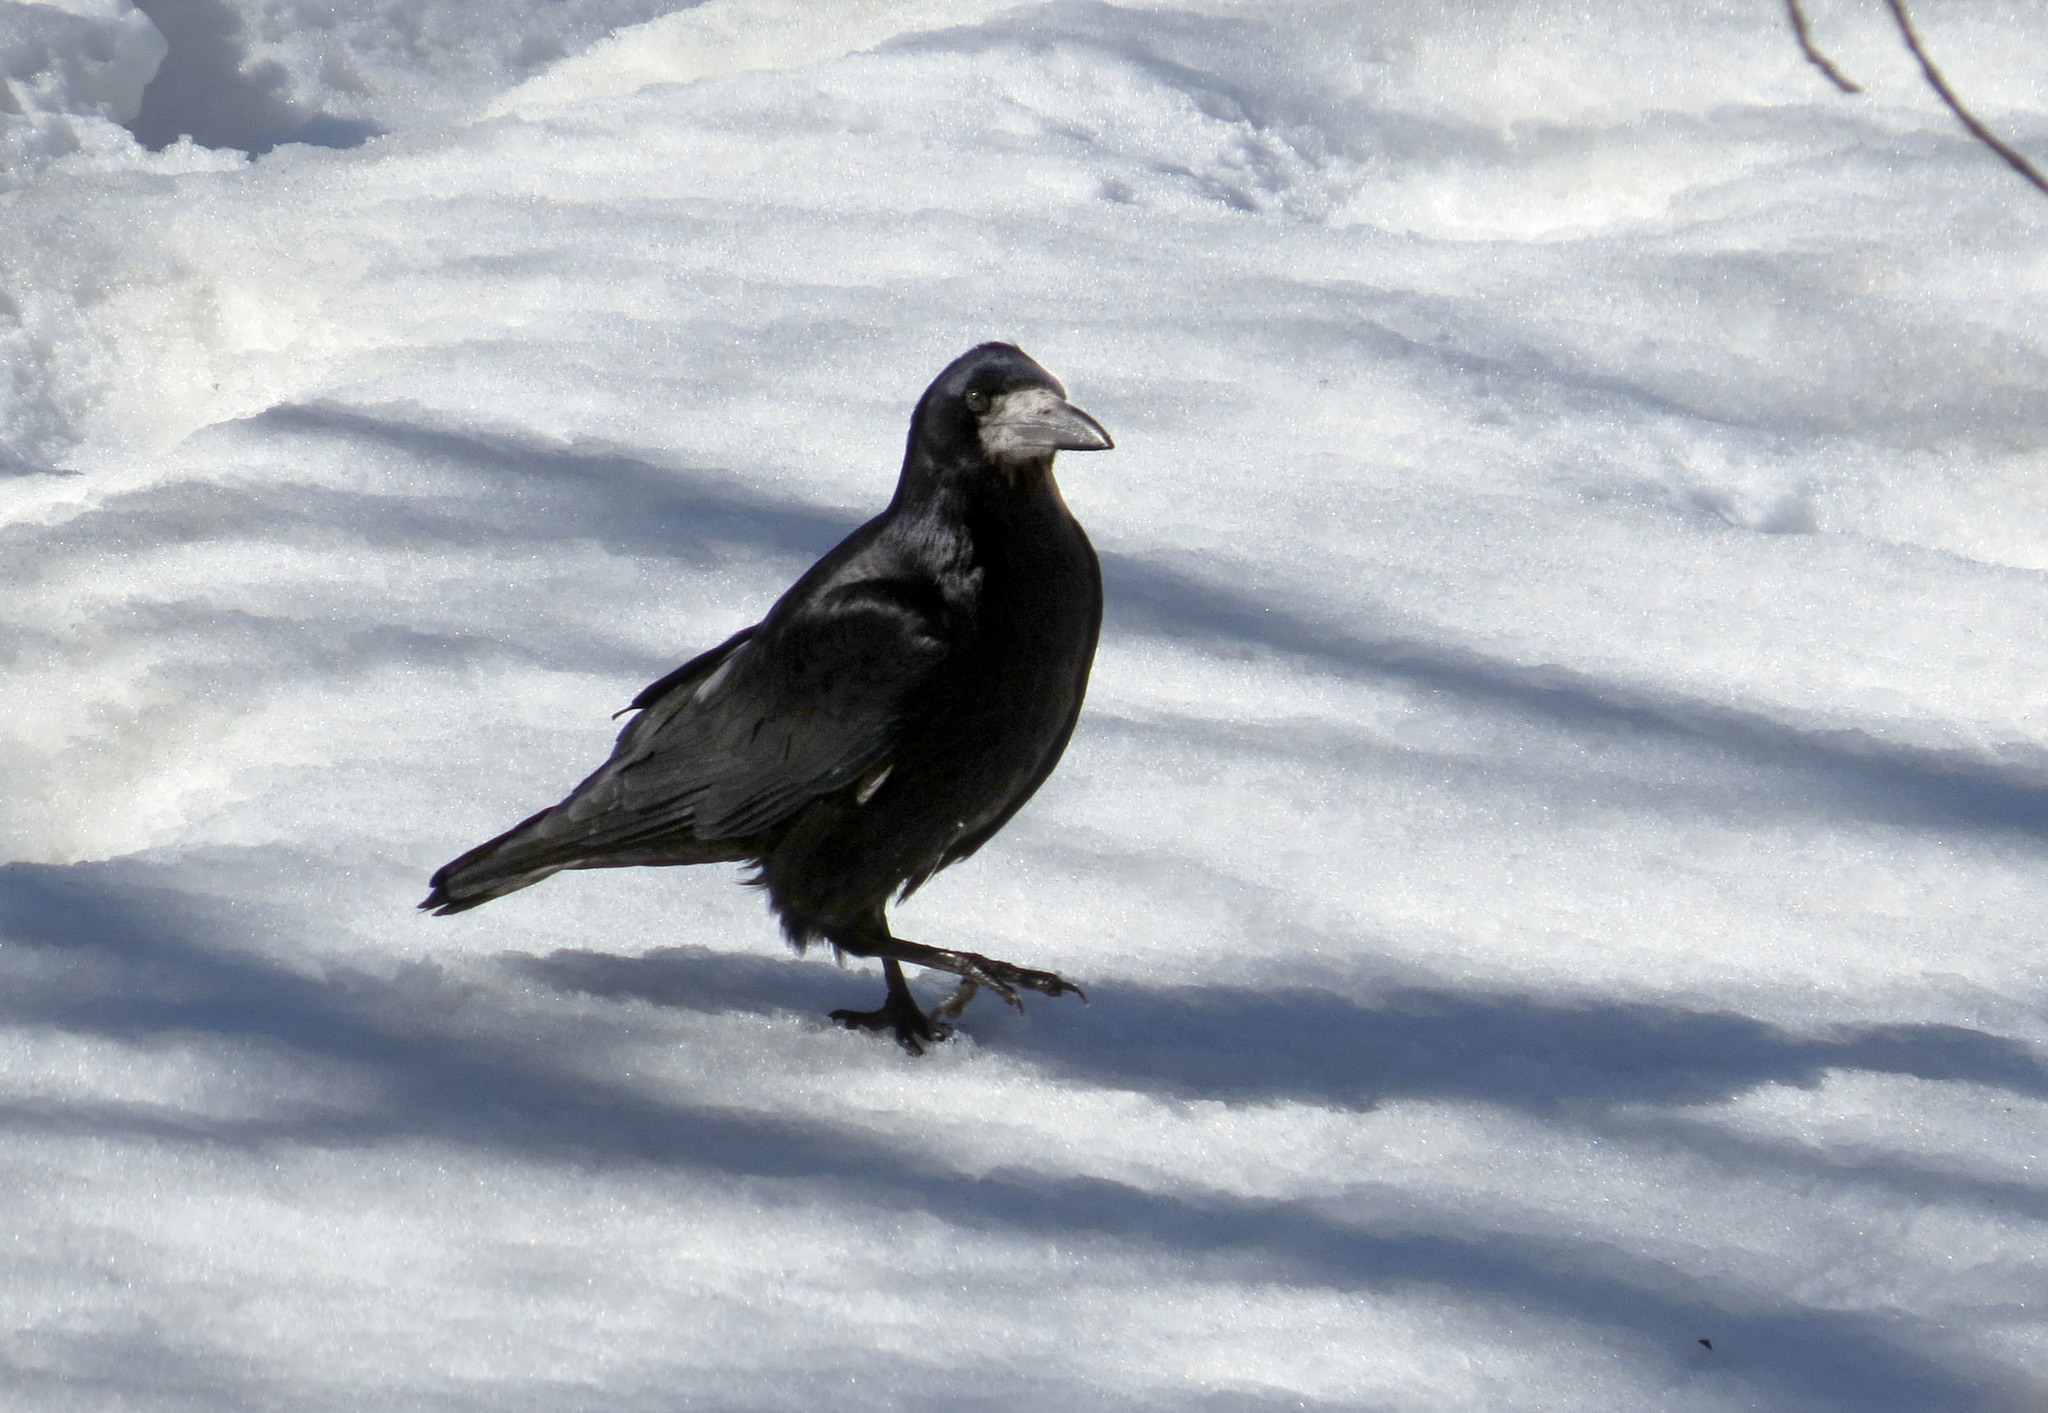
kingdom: Animalia
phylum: Chordata
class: Aves
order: Passeriformes
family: Corvidae
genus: Corvus
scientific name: Corvus frugilegus
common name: Rook
